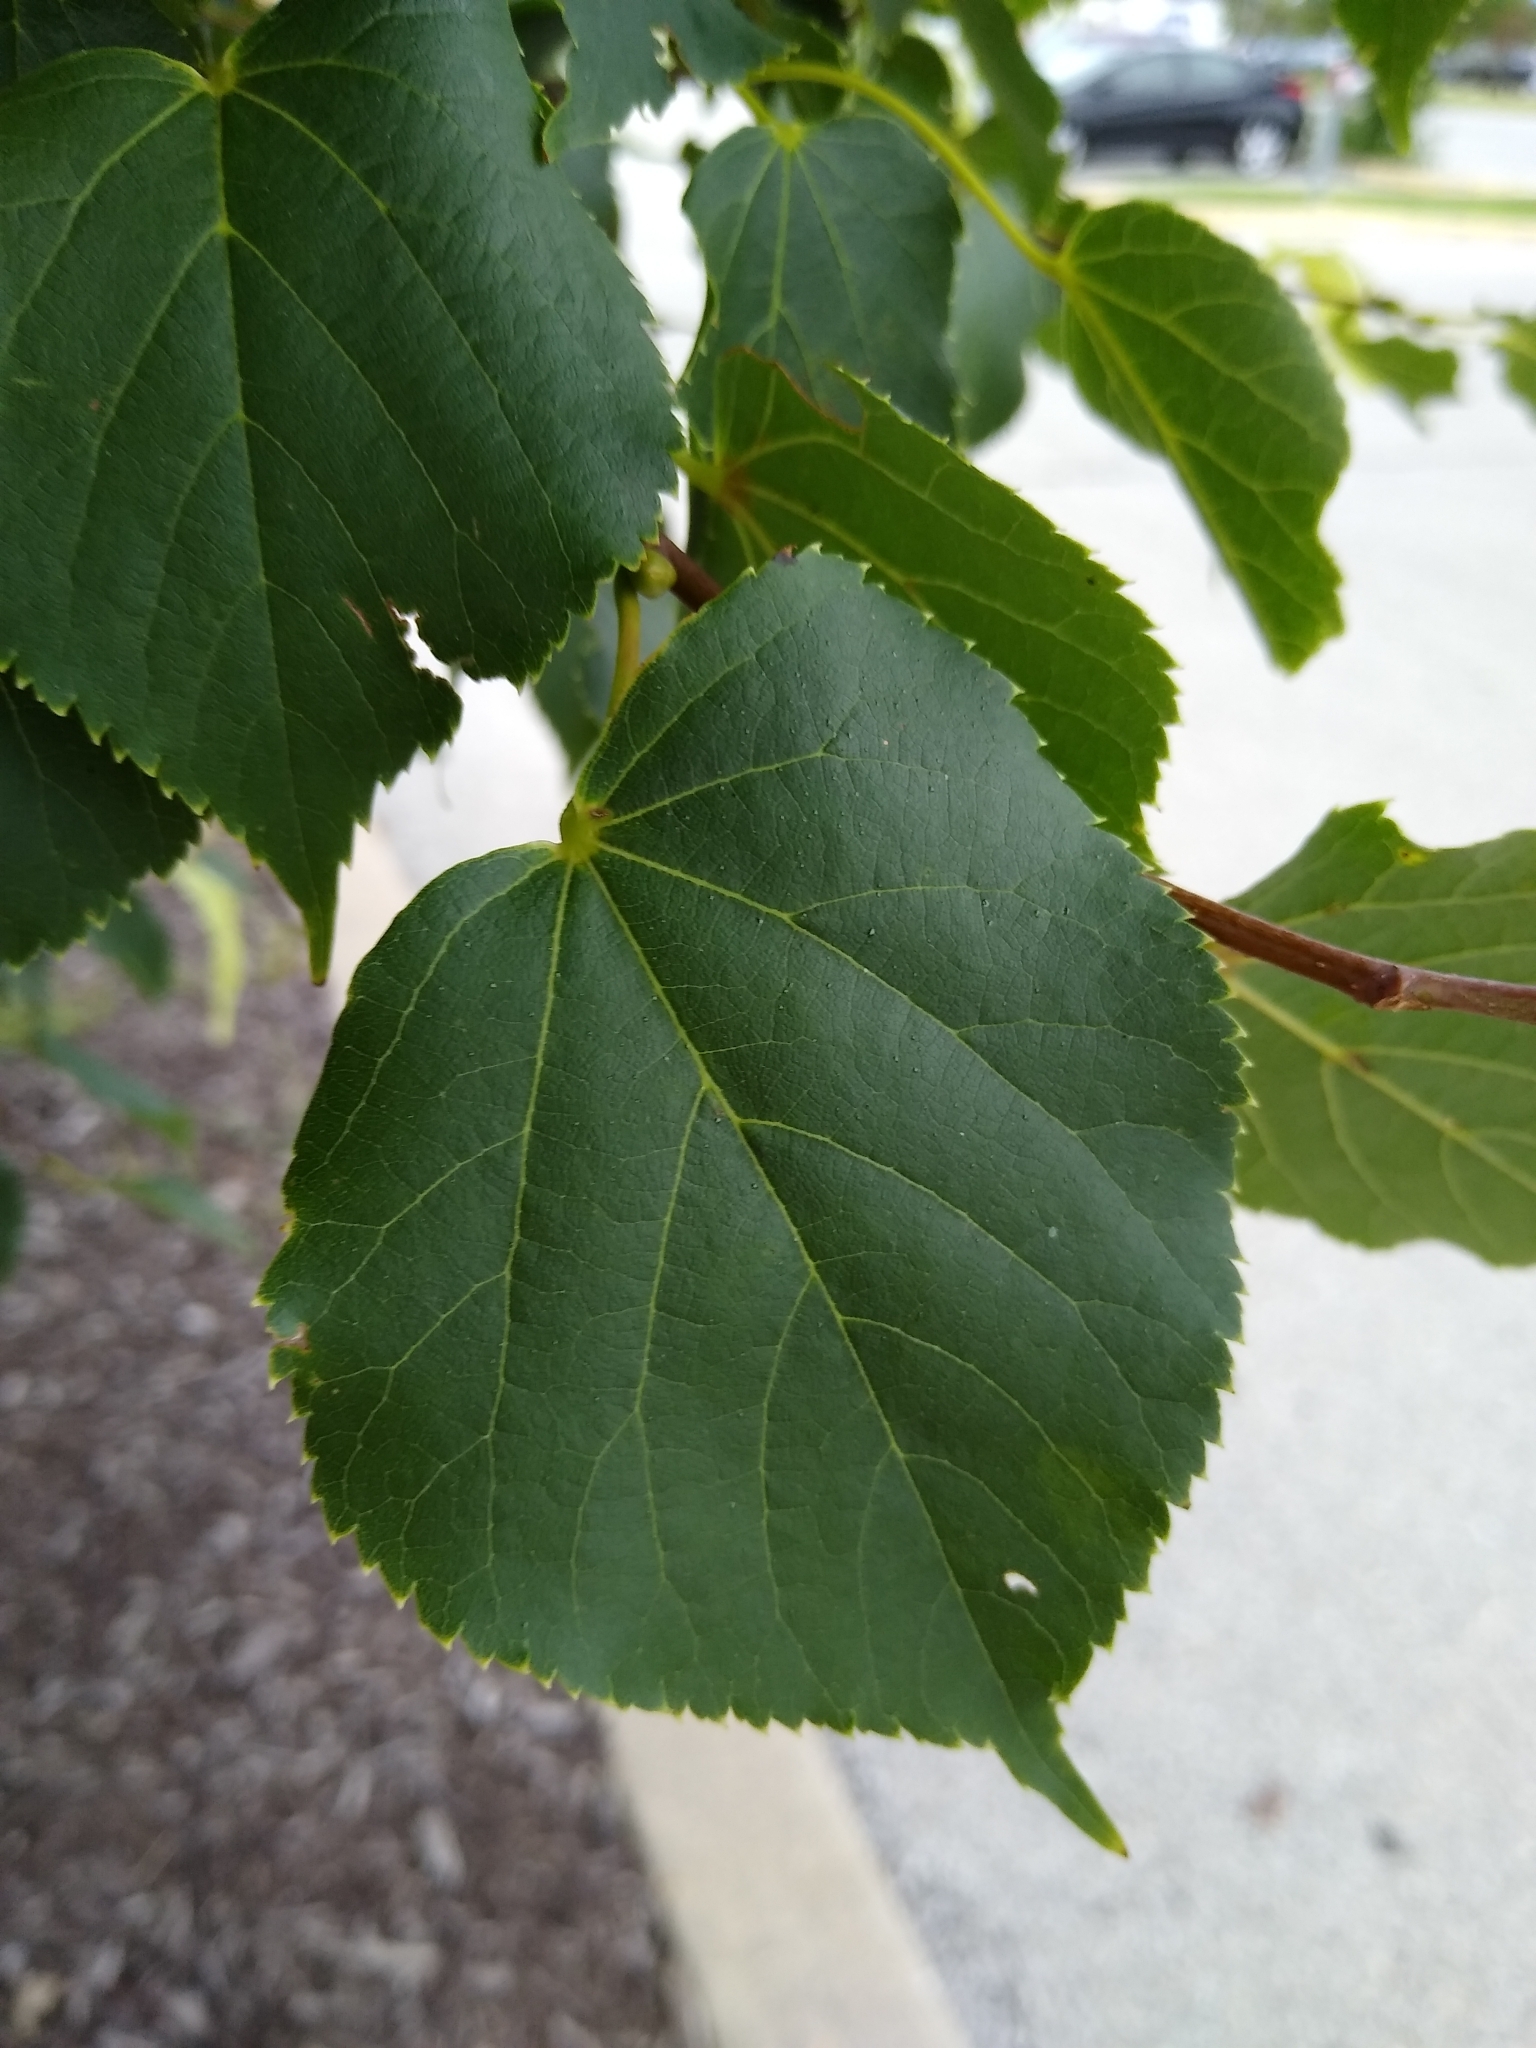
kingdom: Plantae
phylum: Tracheophyta
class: Magnoliopsida
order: Malvales
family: Malvaceae
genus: Tilia
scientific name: Tilia americana
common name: Basswood
